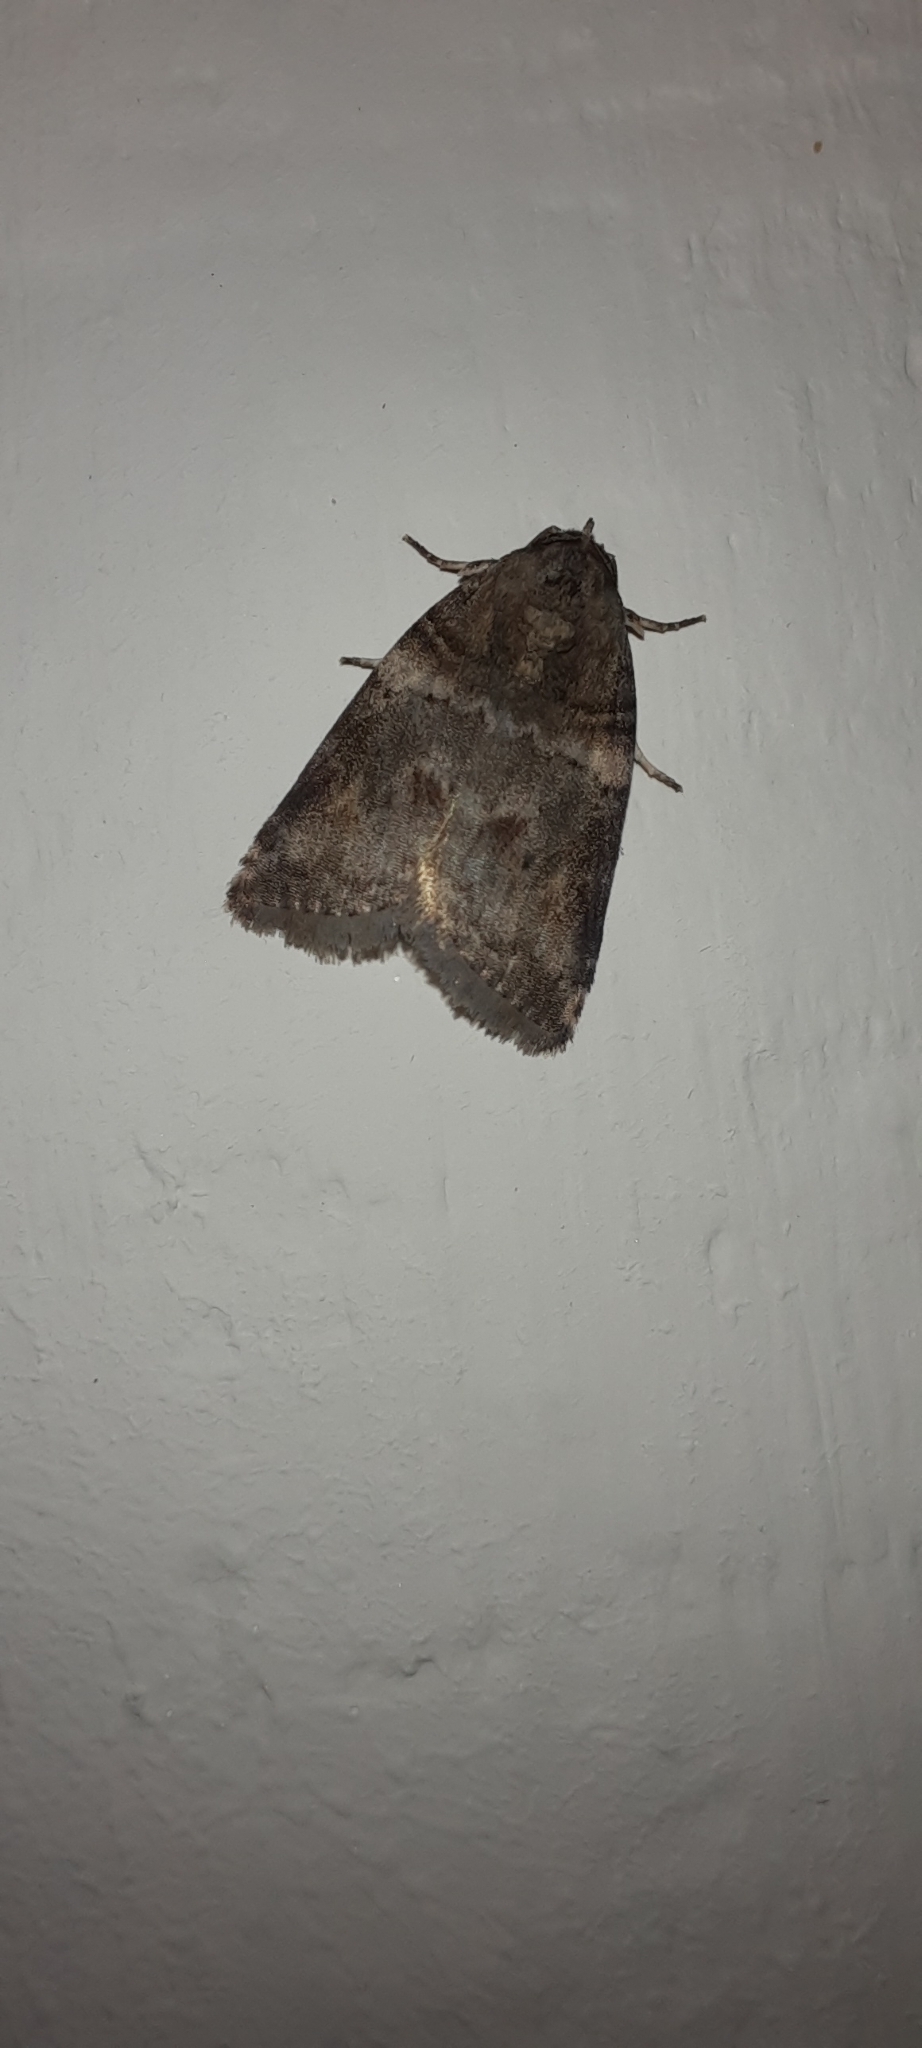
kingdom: Animalia
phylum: Arthropoda
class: Insecta
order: Lepidoptera
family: Nolidae
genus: Garella
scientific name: Garella musculana
